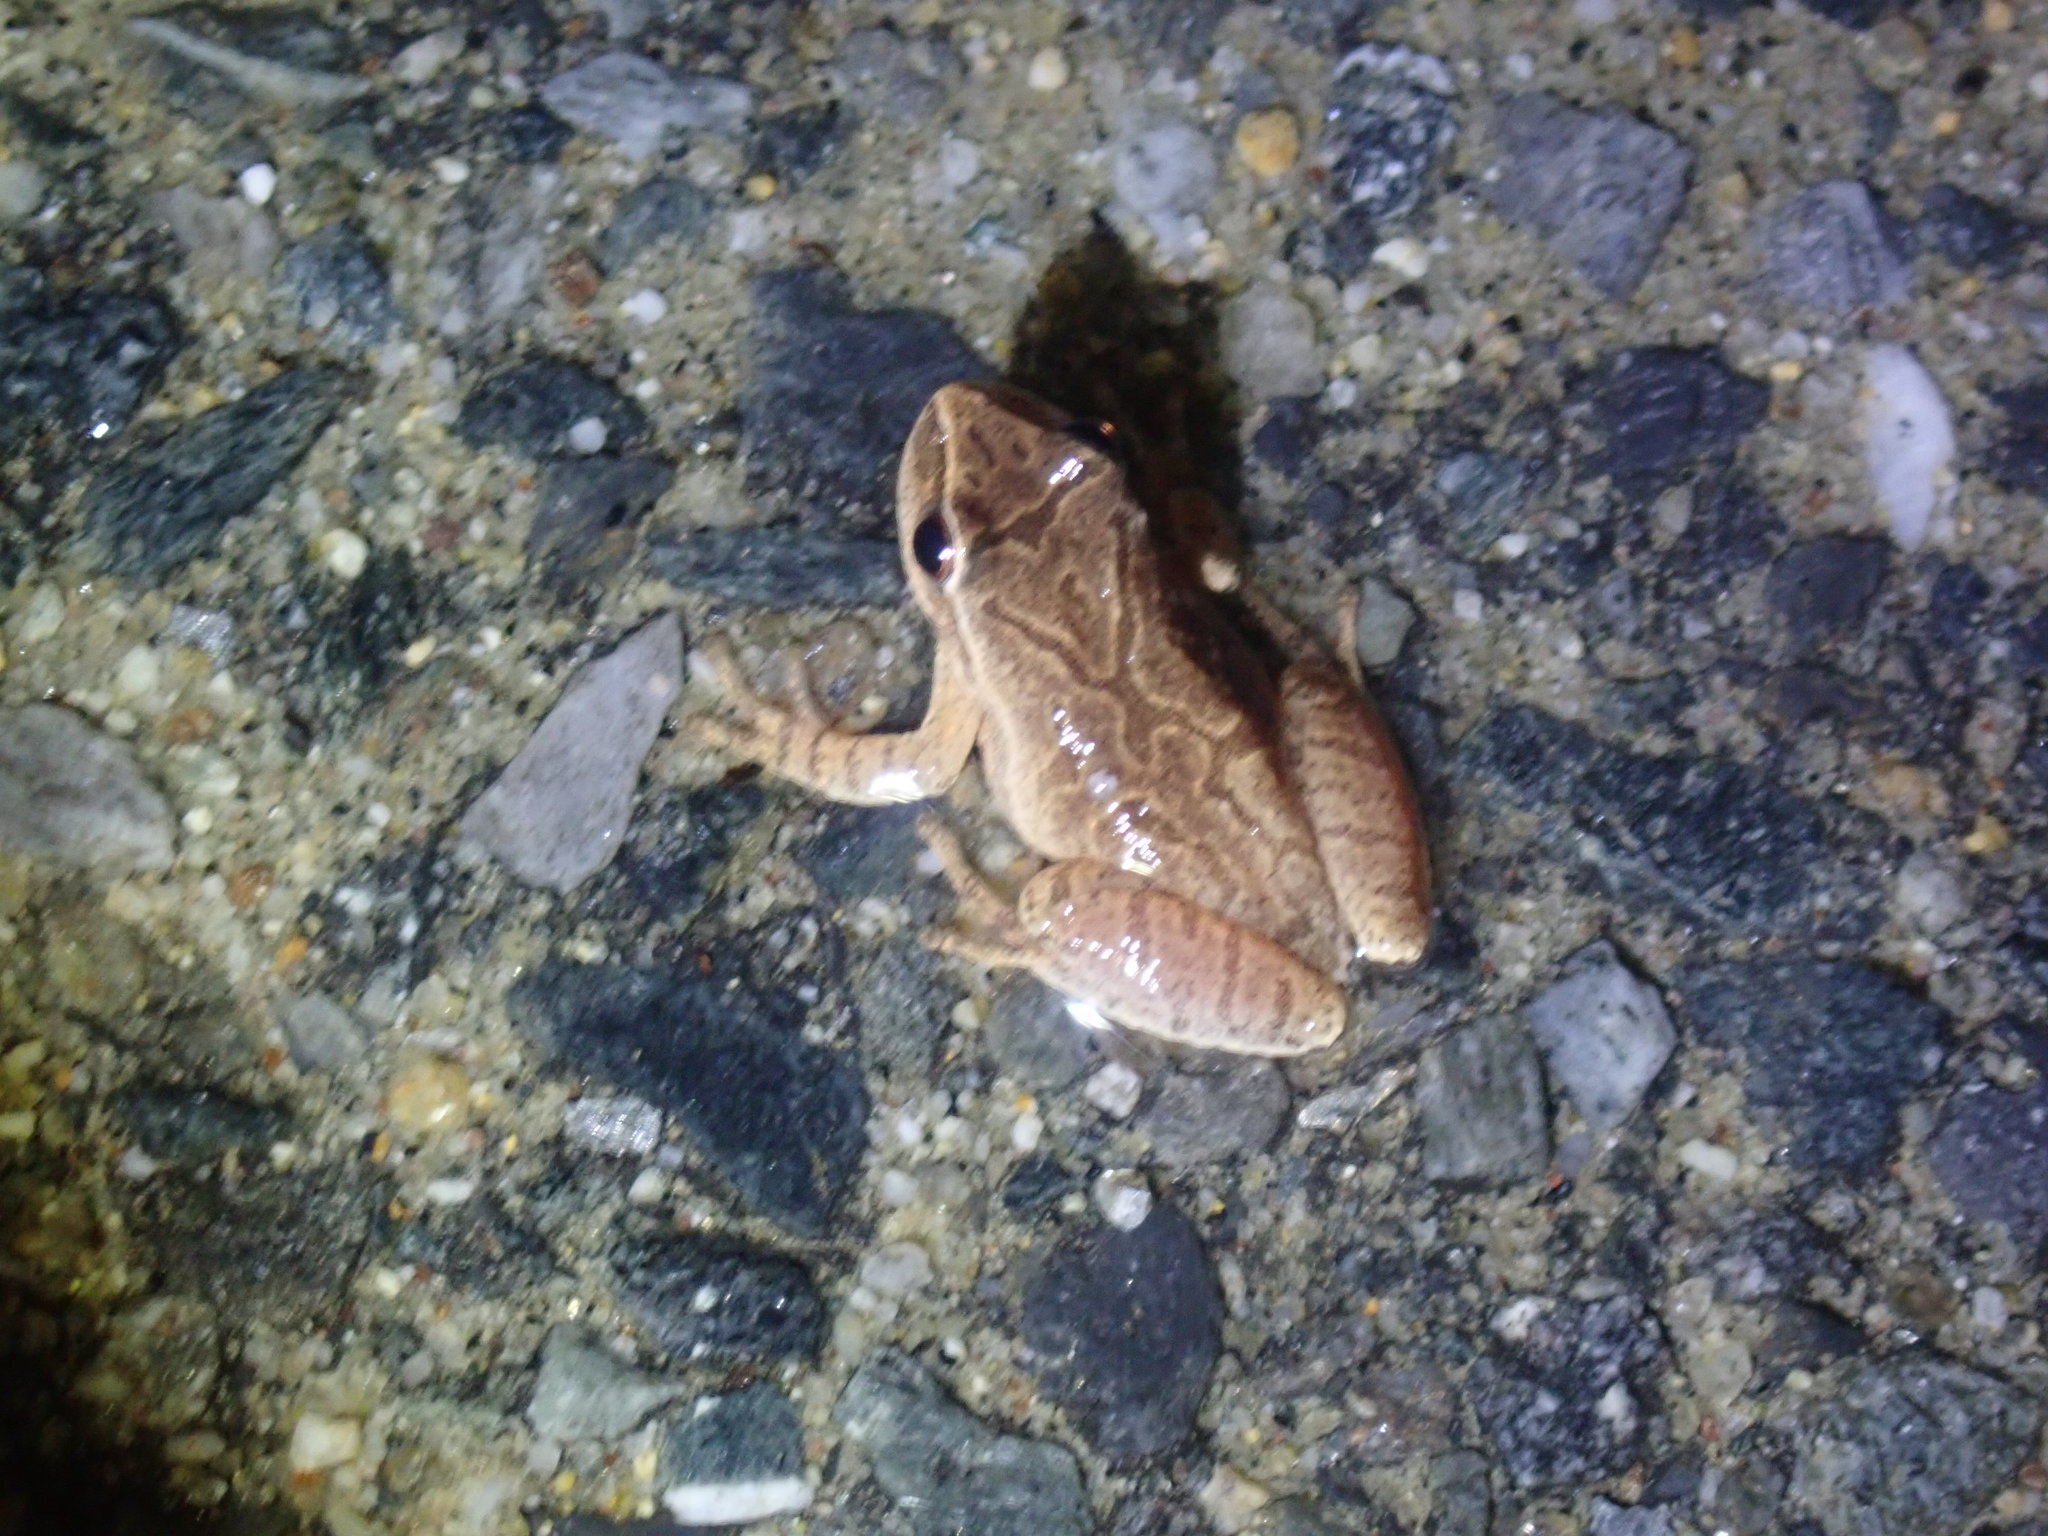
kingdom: Animalia
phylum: Chordata
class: Amphibia
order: Anura
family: Hylidae
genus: Pseudacris
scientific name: Pseudacris crucifer
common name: Spring peeper
